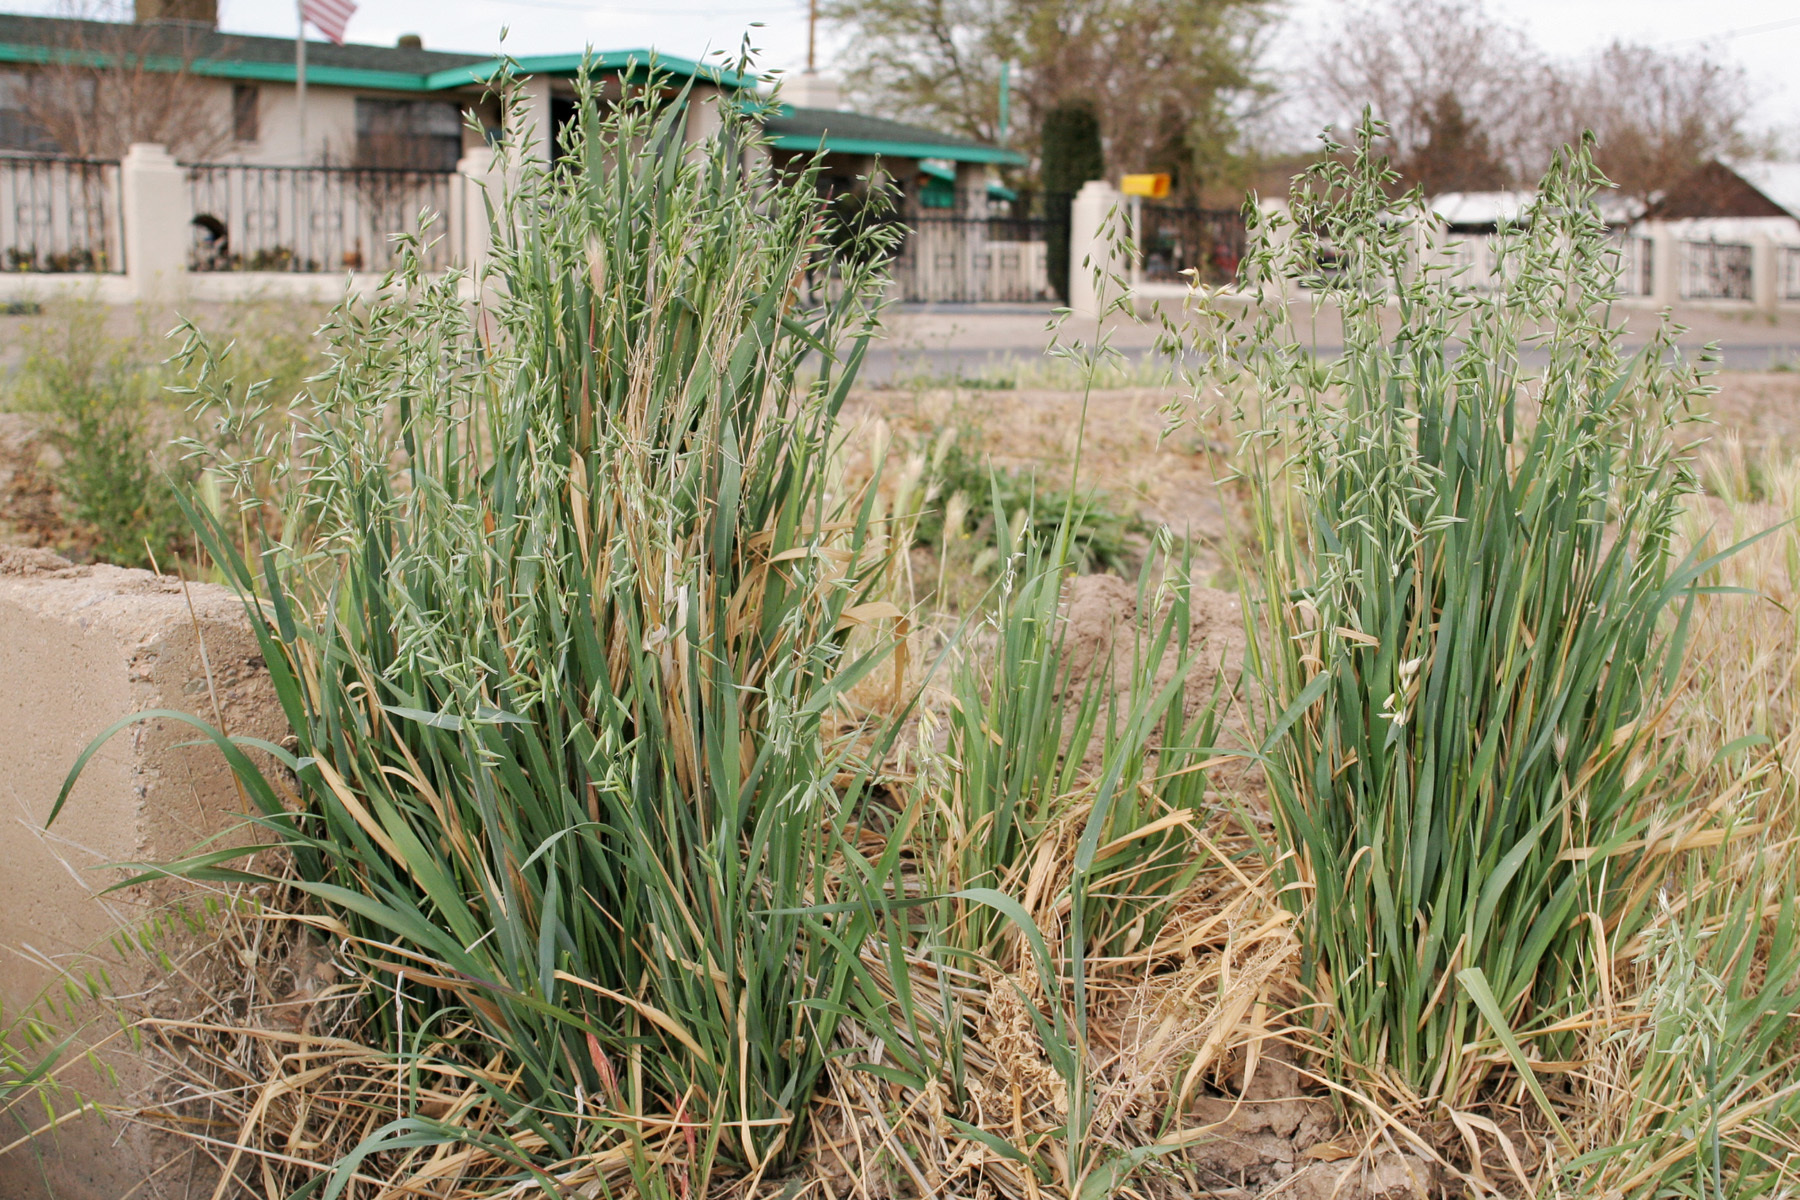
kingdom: Plantae
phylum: Tracheophyta
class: Liliopsida
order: Poales
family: Poaceae
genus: Avena
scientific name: Avena sativa
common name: Oat
